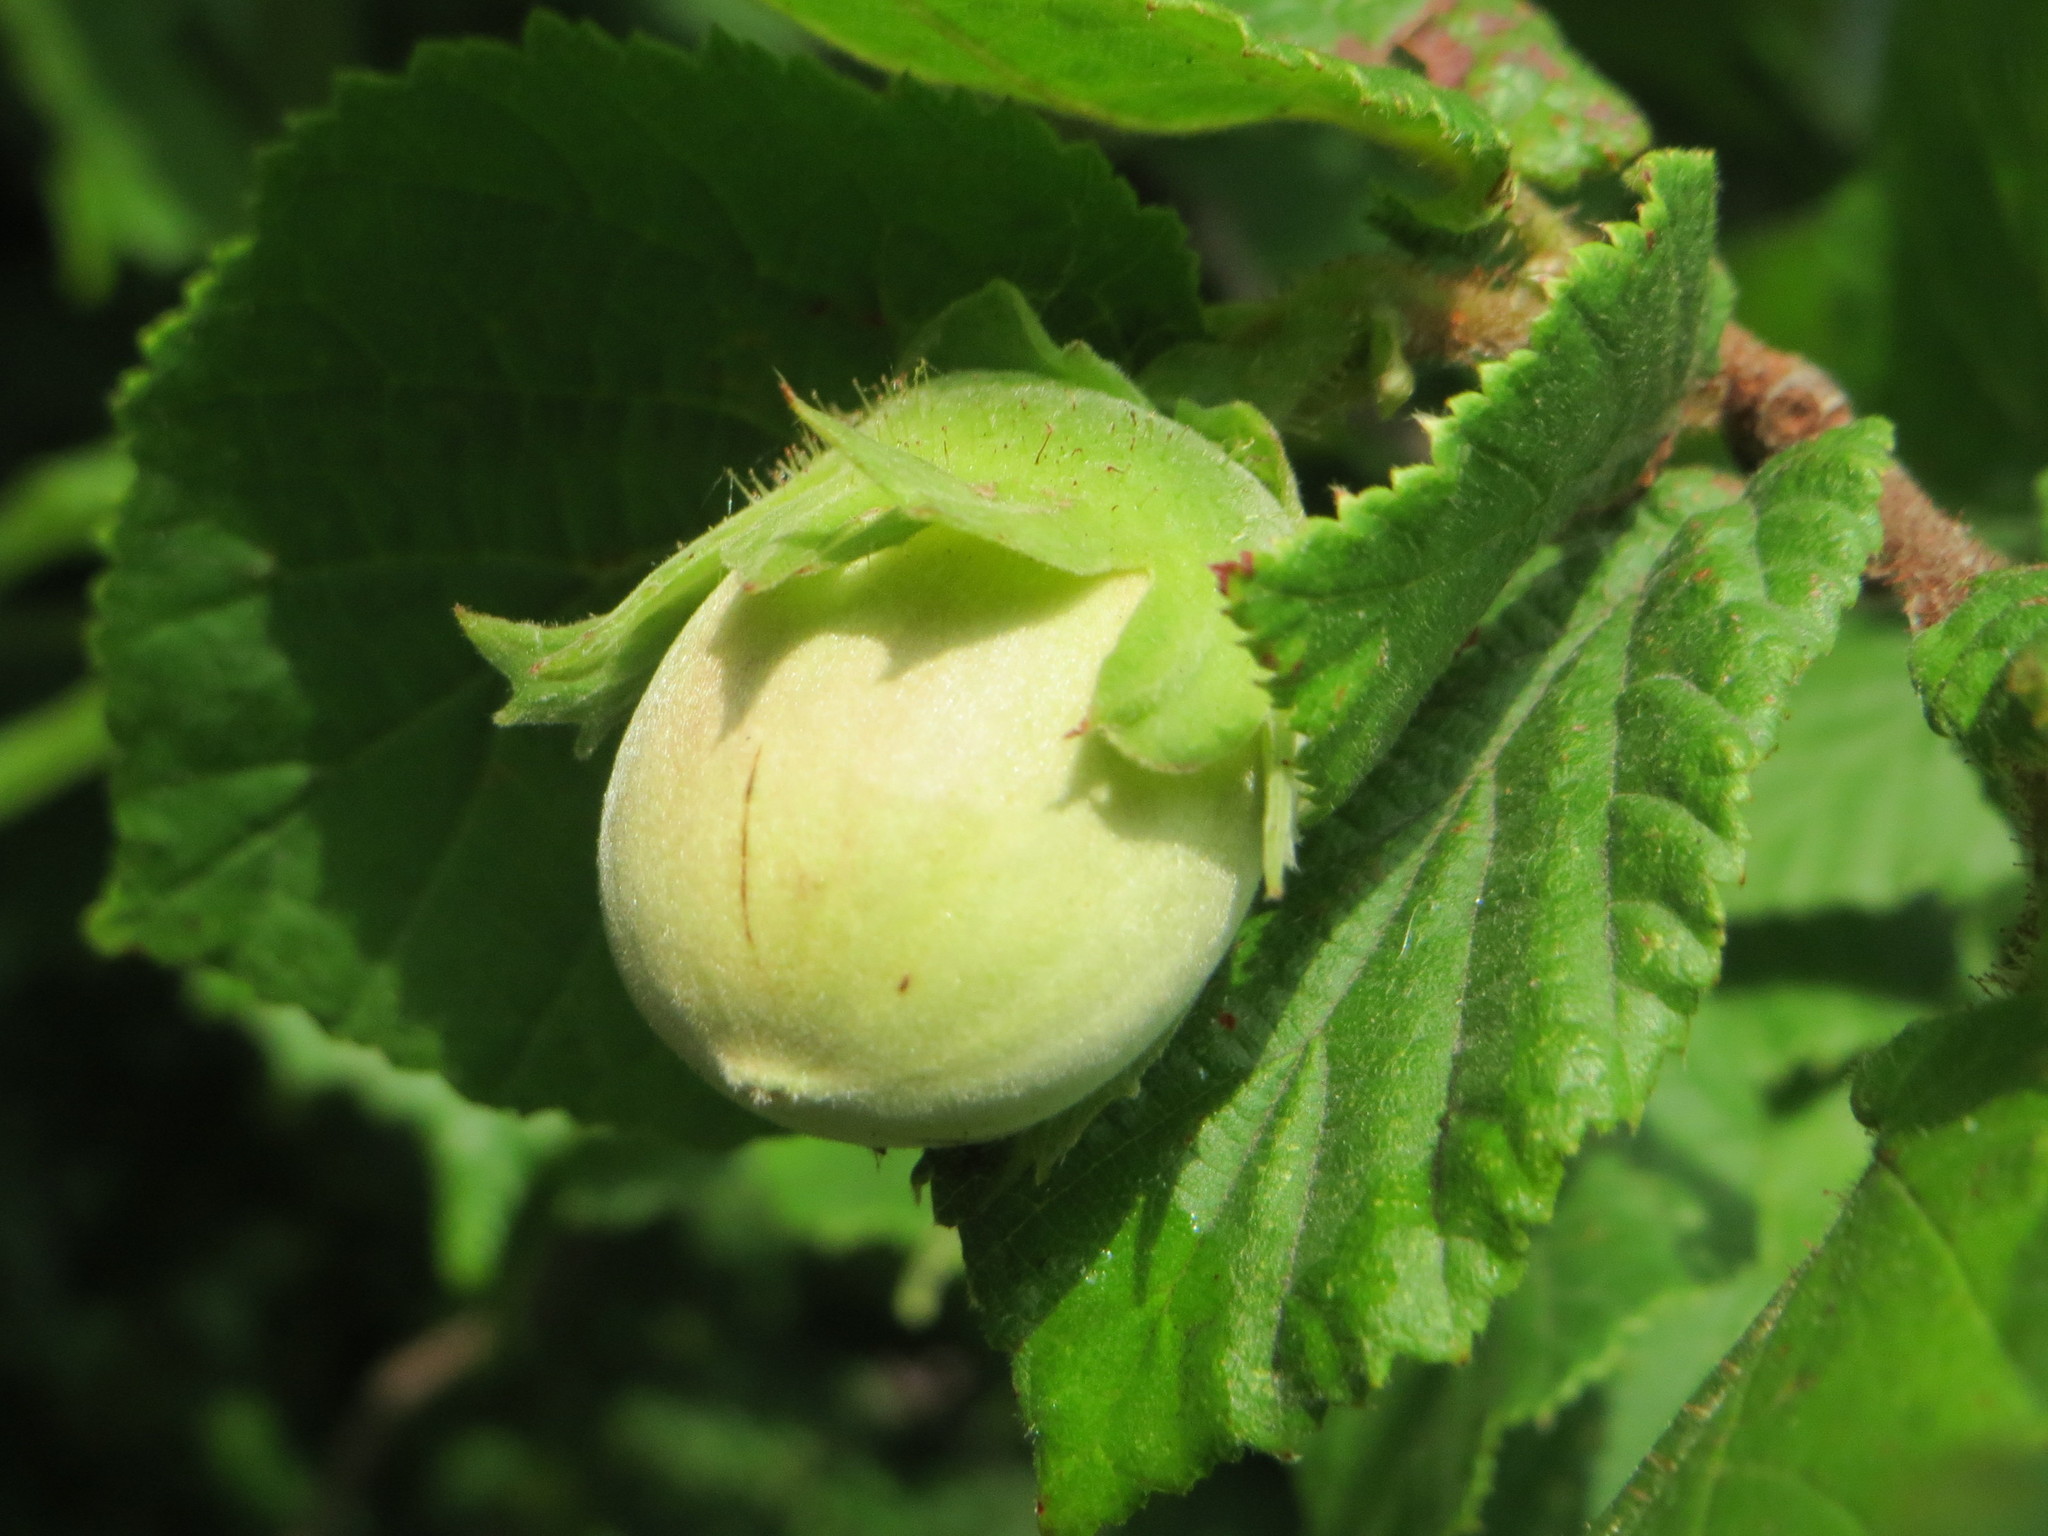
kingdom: Plantae
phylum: Tracheophyta
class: Magnoliopsida
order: Fagales
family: Betulaceae
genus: Corylus
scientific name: Corylus avellana
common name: European hazel
